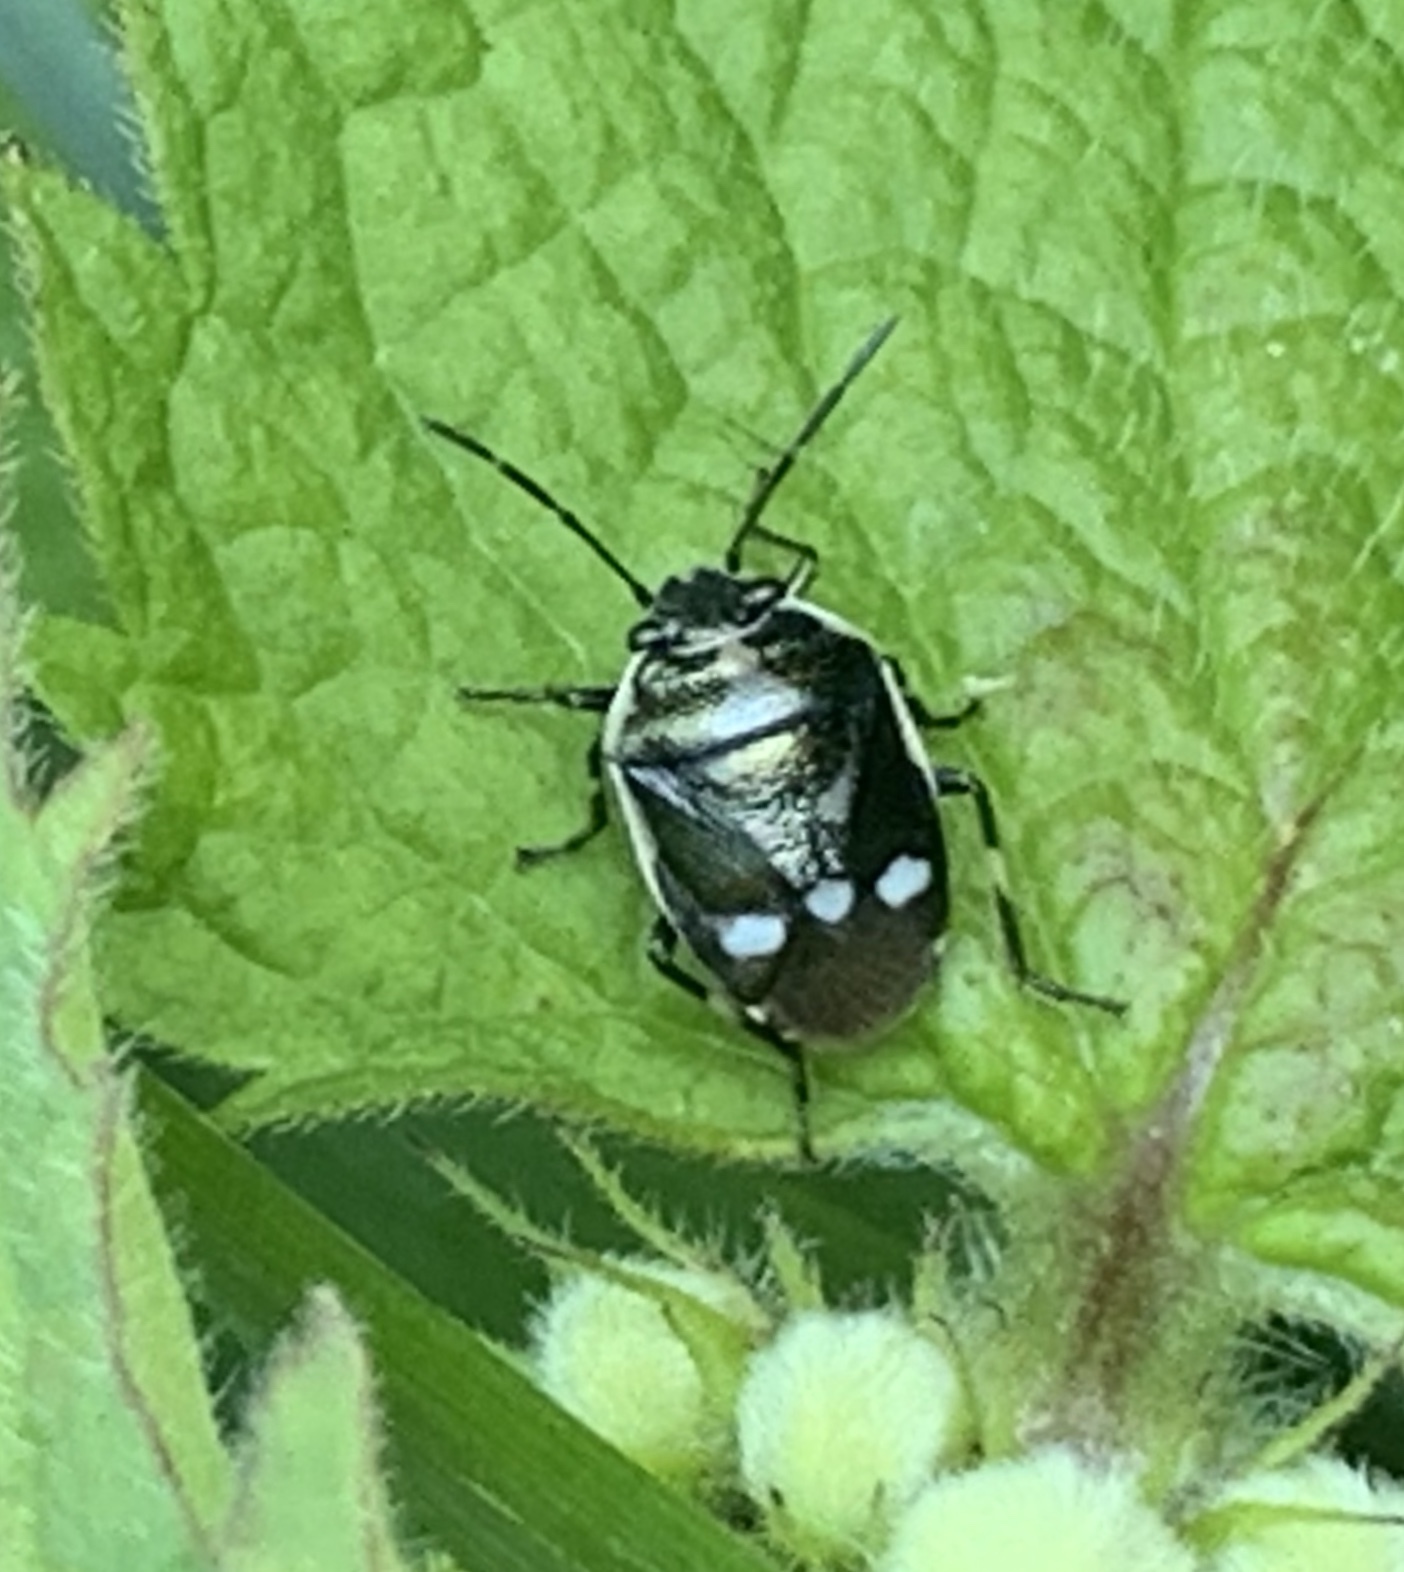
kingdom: Animalia
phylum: Arthropoda
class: Insecta
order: Hemiptera
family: Pentatomidae
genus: Eurydema
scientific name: Eurydema oleracea
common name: Cabbage bug
